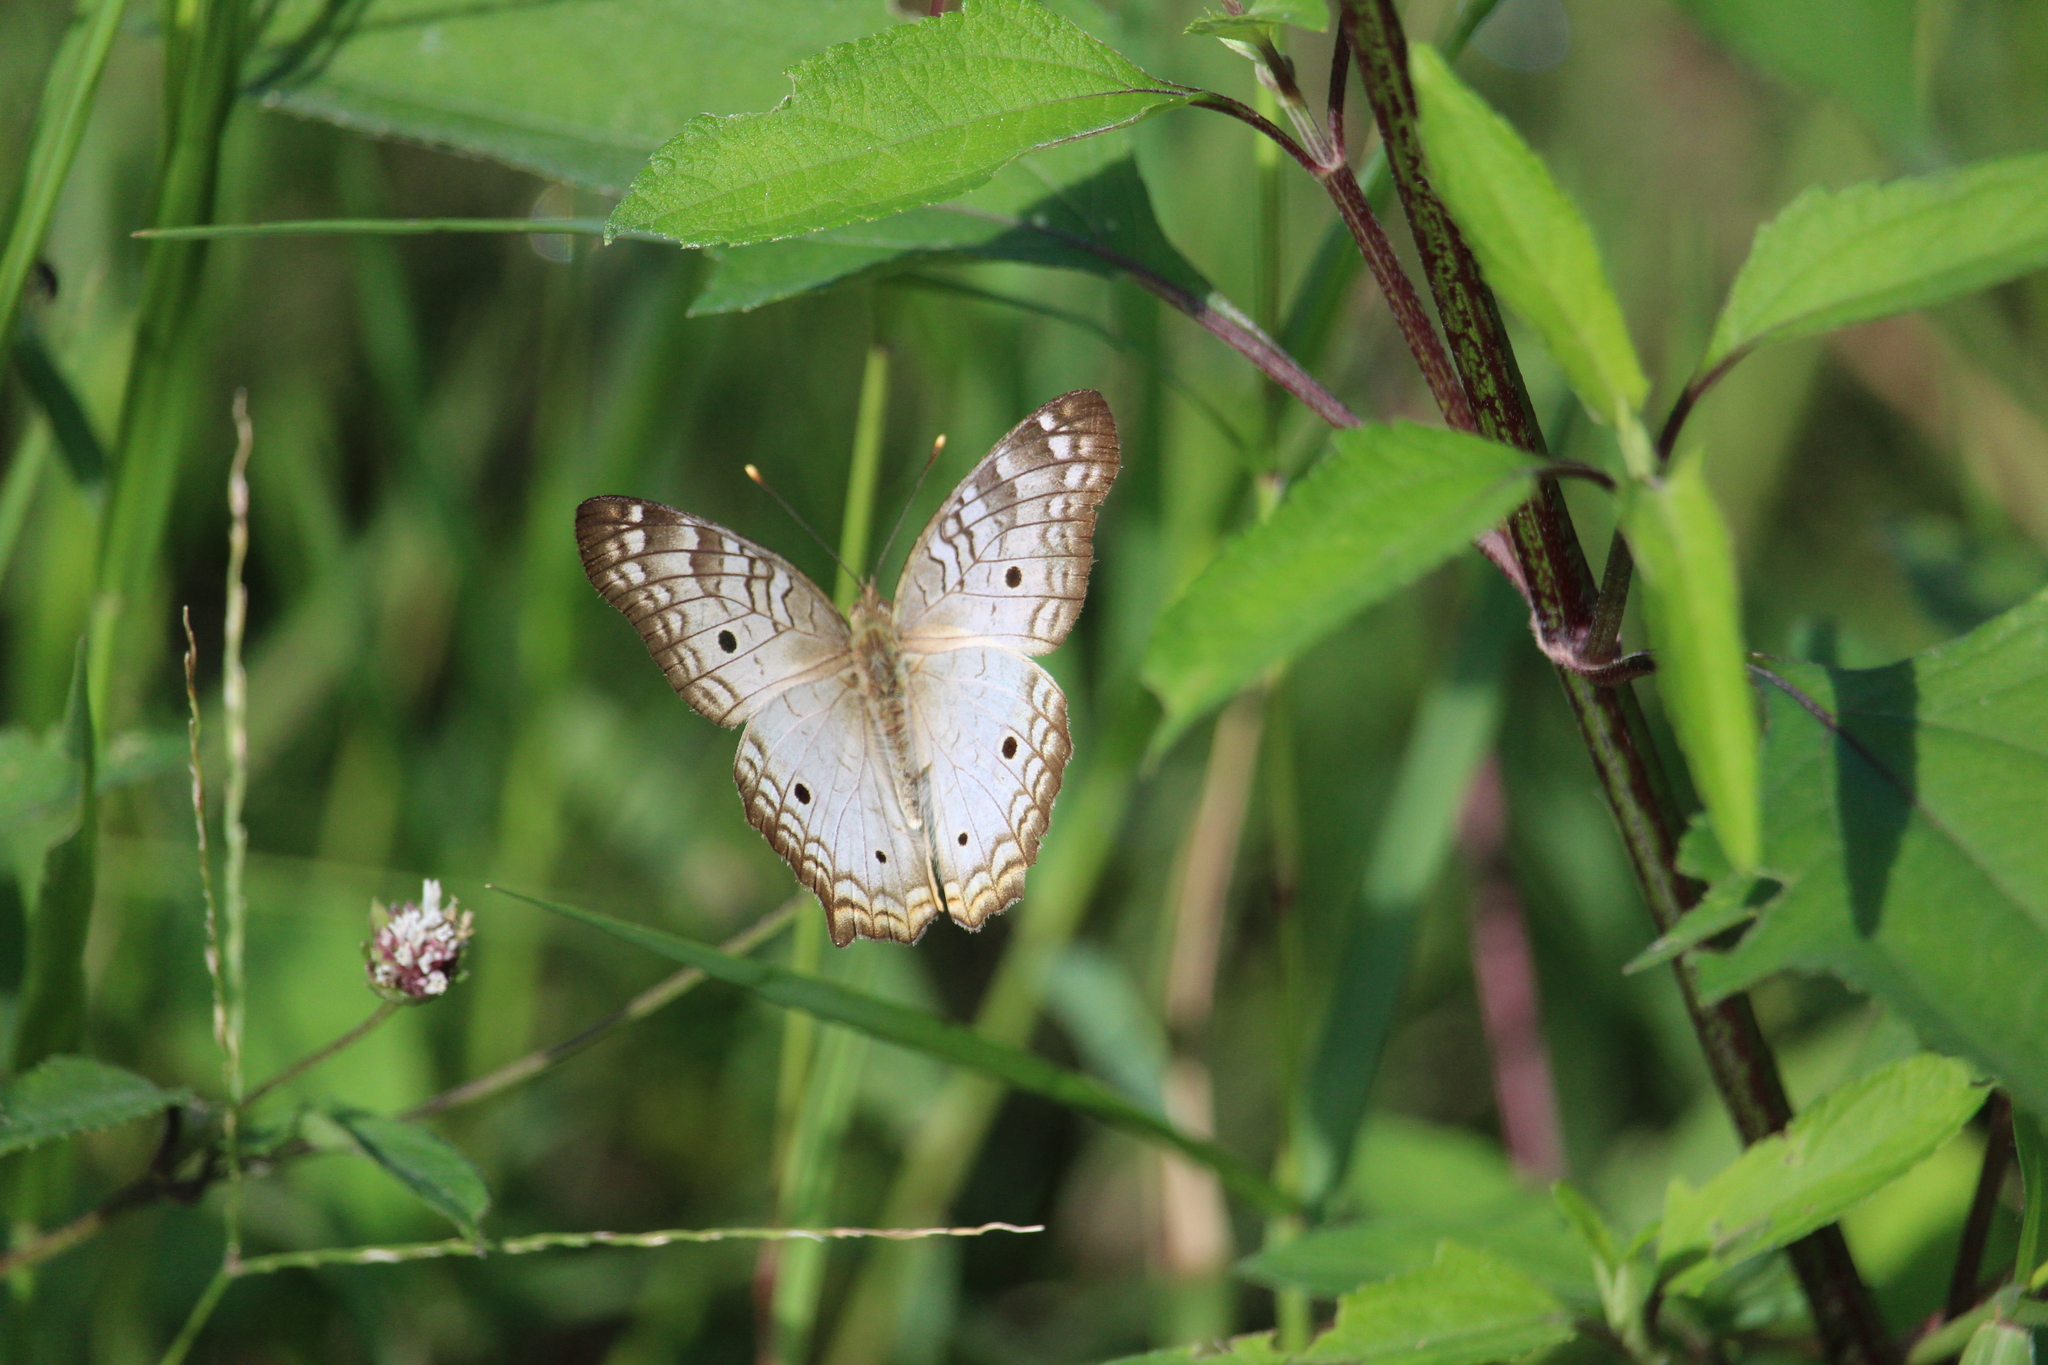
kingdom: Animalia
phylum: Arthropoda
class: Insecta
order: Lepidoptera
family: Nymphalidae
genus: Anartia
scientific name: Anartia jatrophae
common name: White peacock
